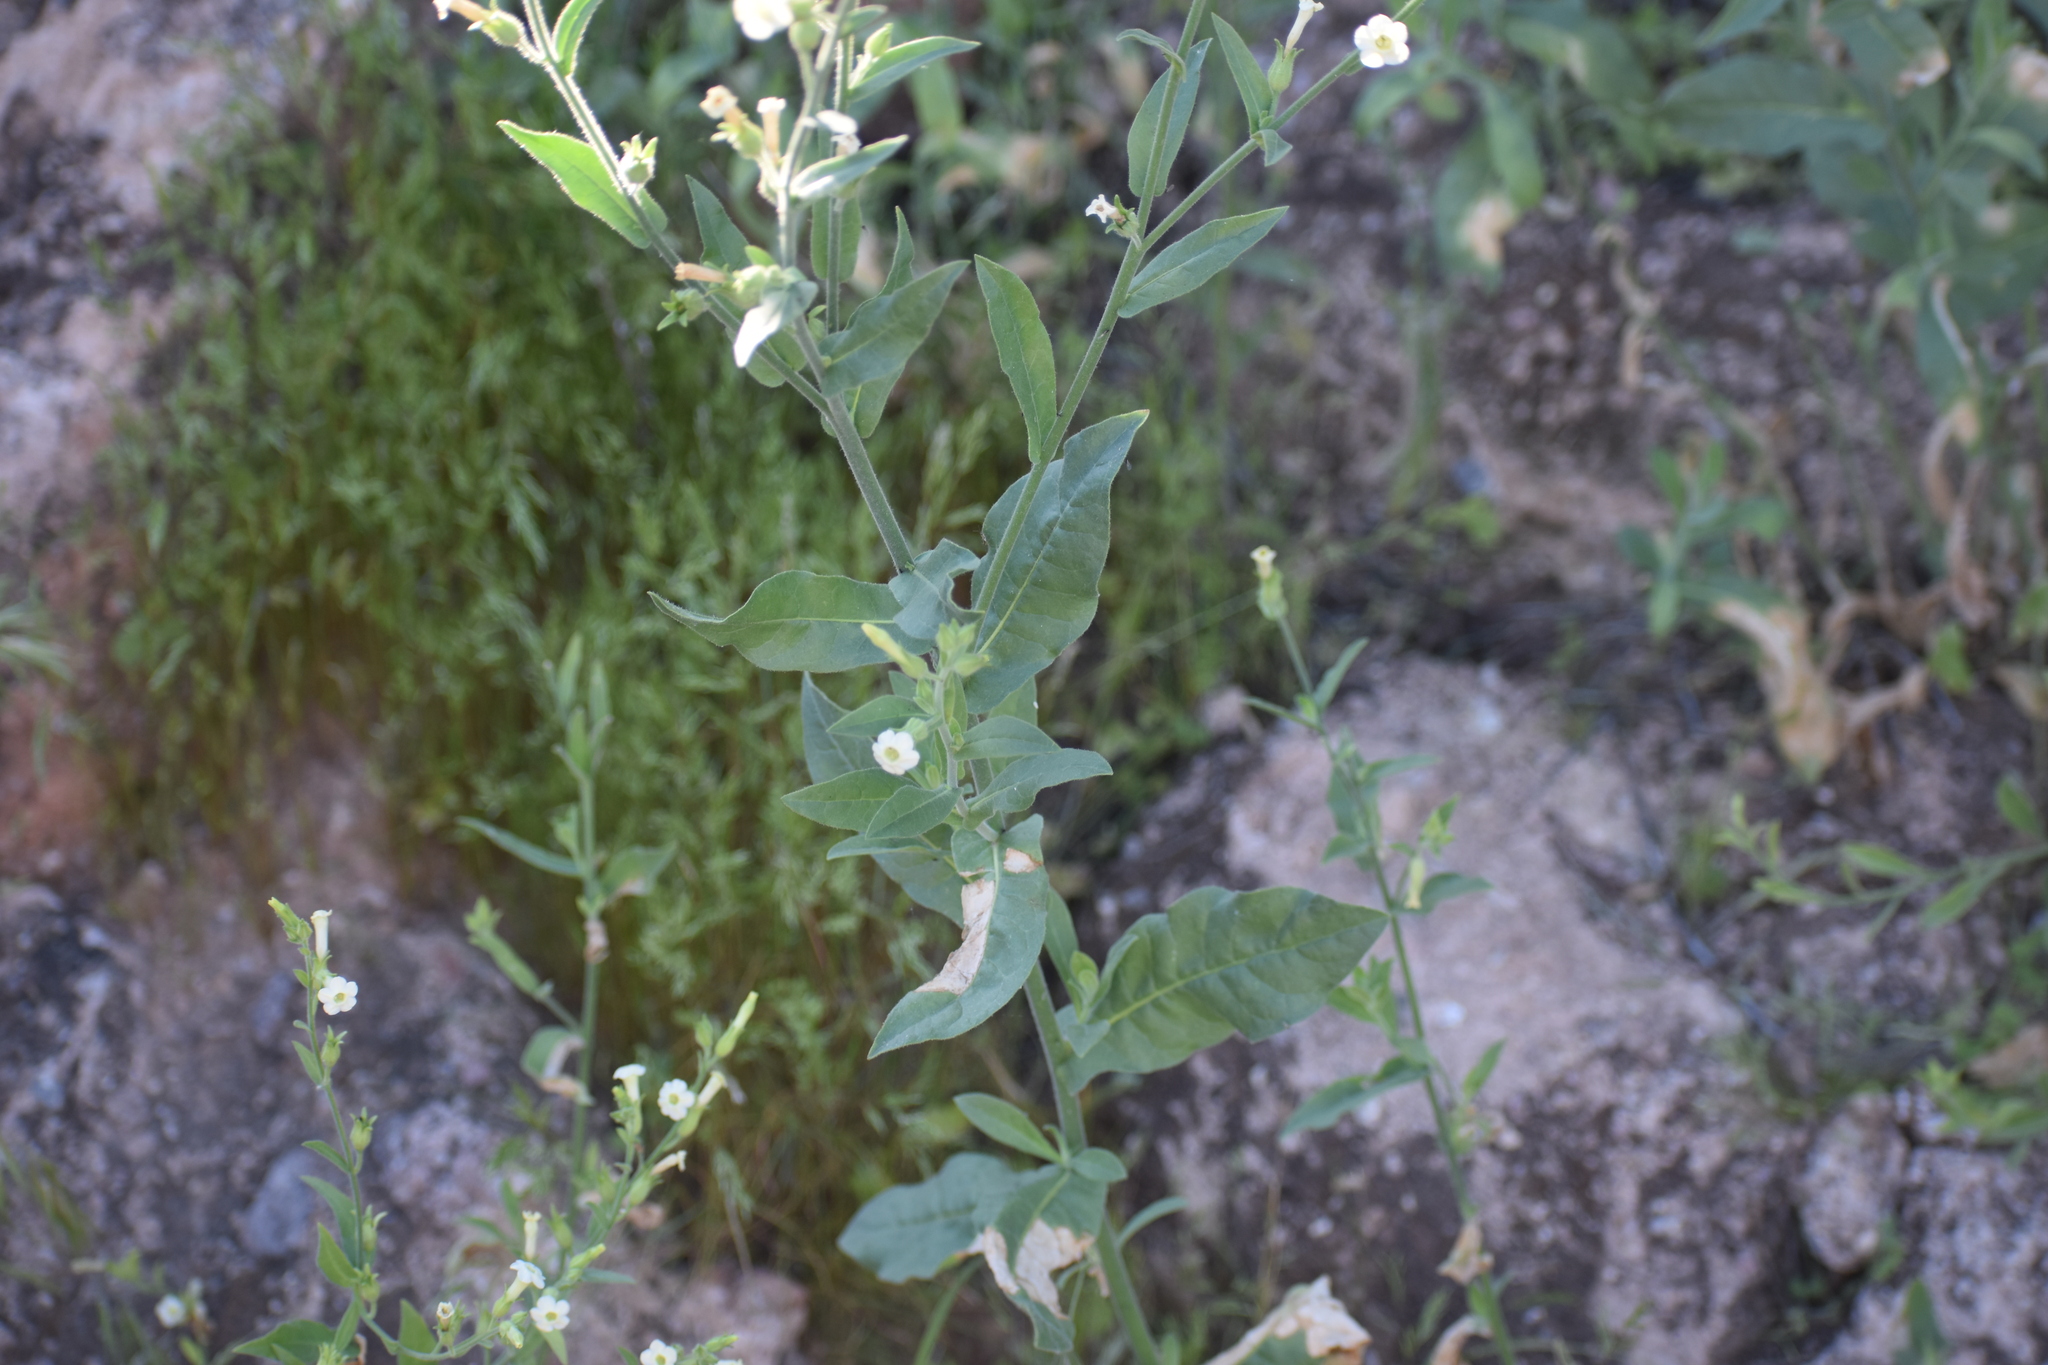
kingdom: Plantae
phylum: Tracheophyta
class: Magnoliopsida
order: Solanales
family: Solanaceae
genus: Nicotiana
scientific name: Nicotiana obtusifolia
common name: Desert tobacco
